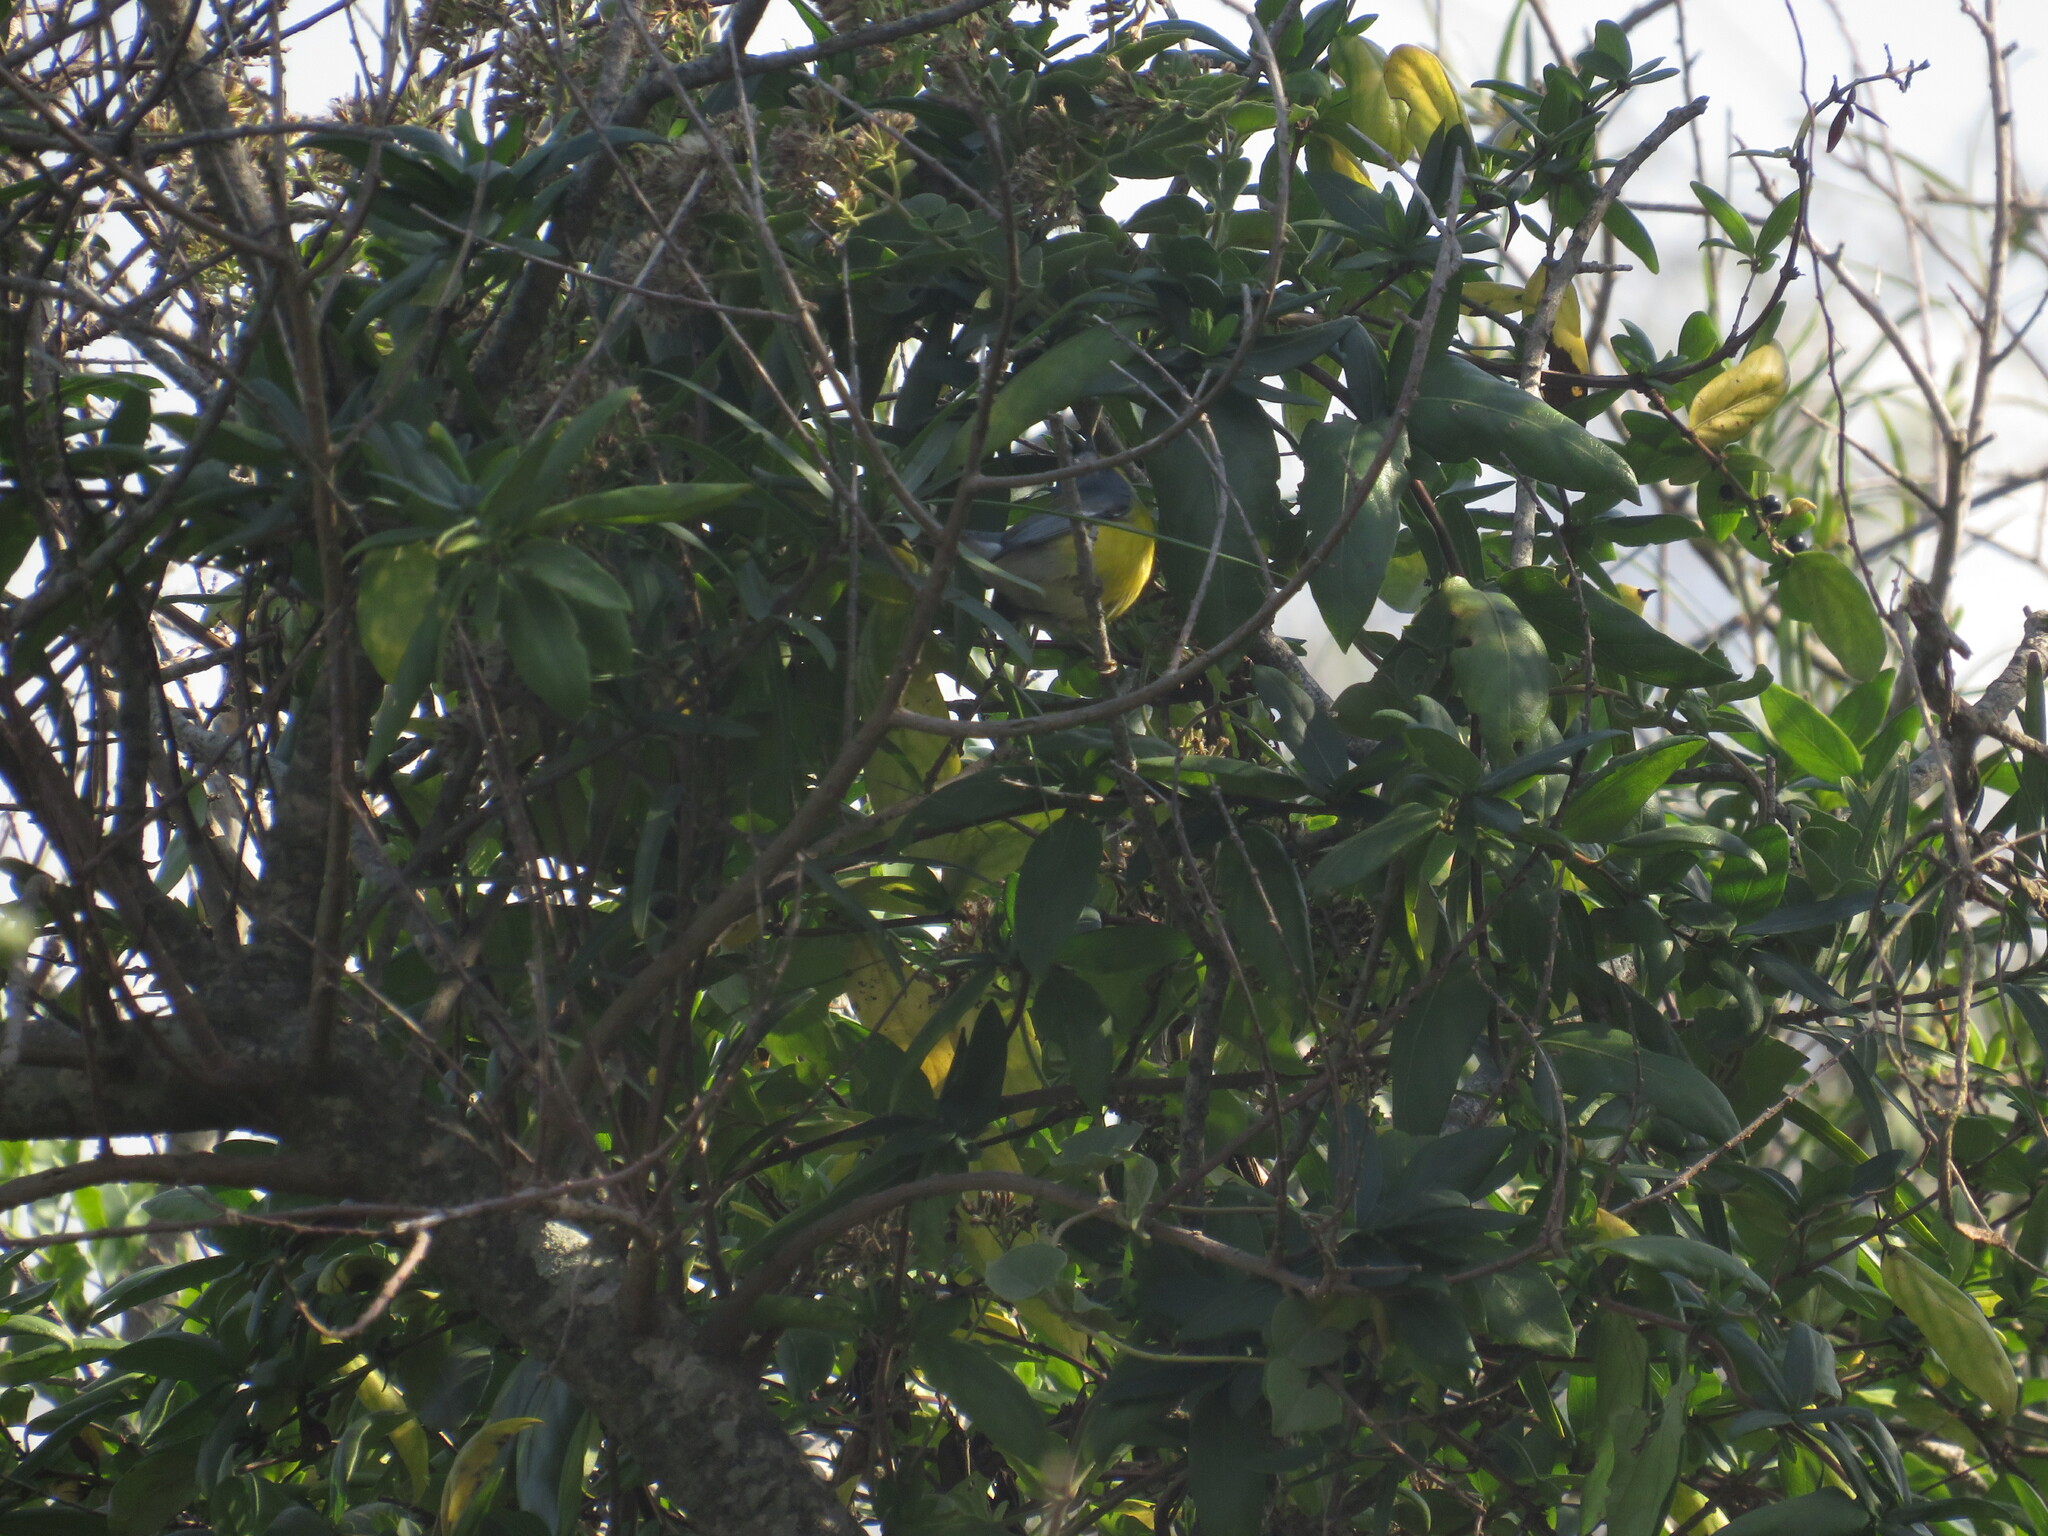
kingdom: Animalia
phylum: Chordata
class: Aves
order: Passeriformes
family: Parulidae
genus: Setophaga
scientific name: Setophaga pitiayumi
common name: Tropical parula
